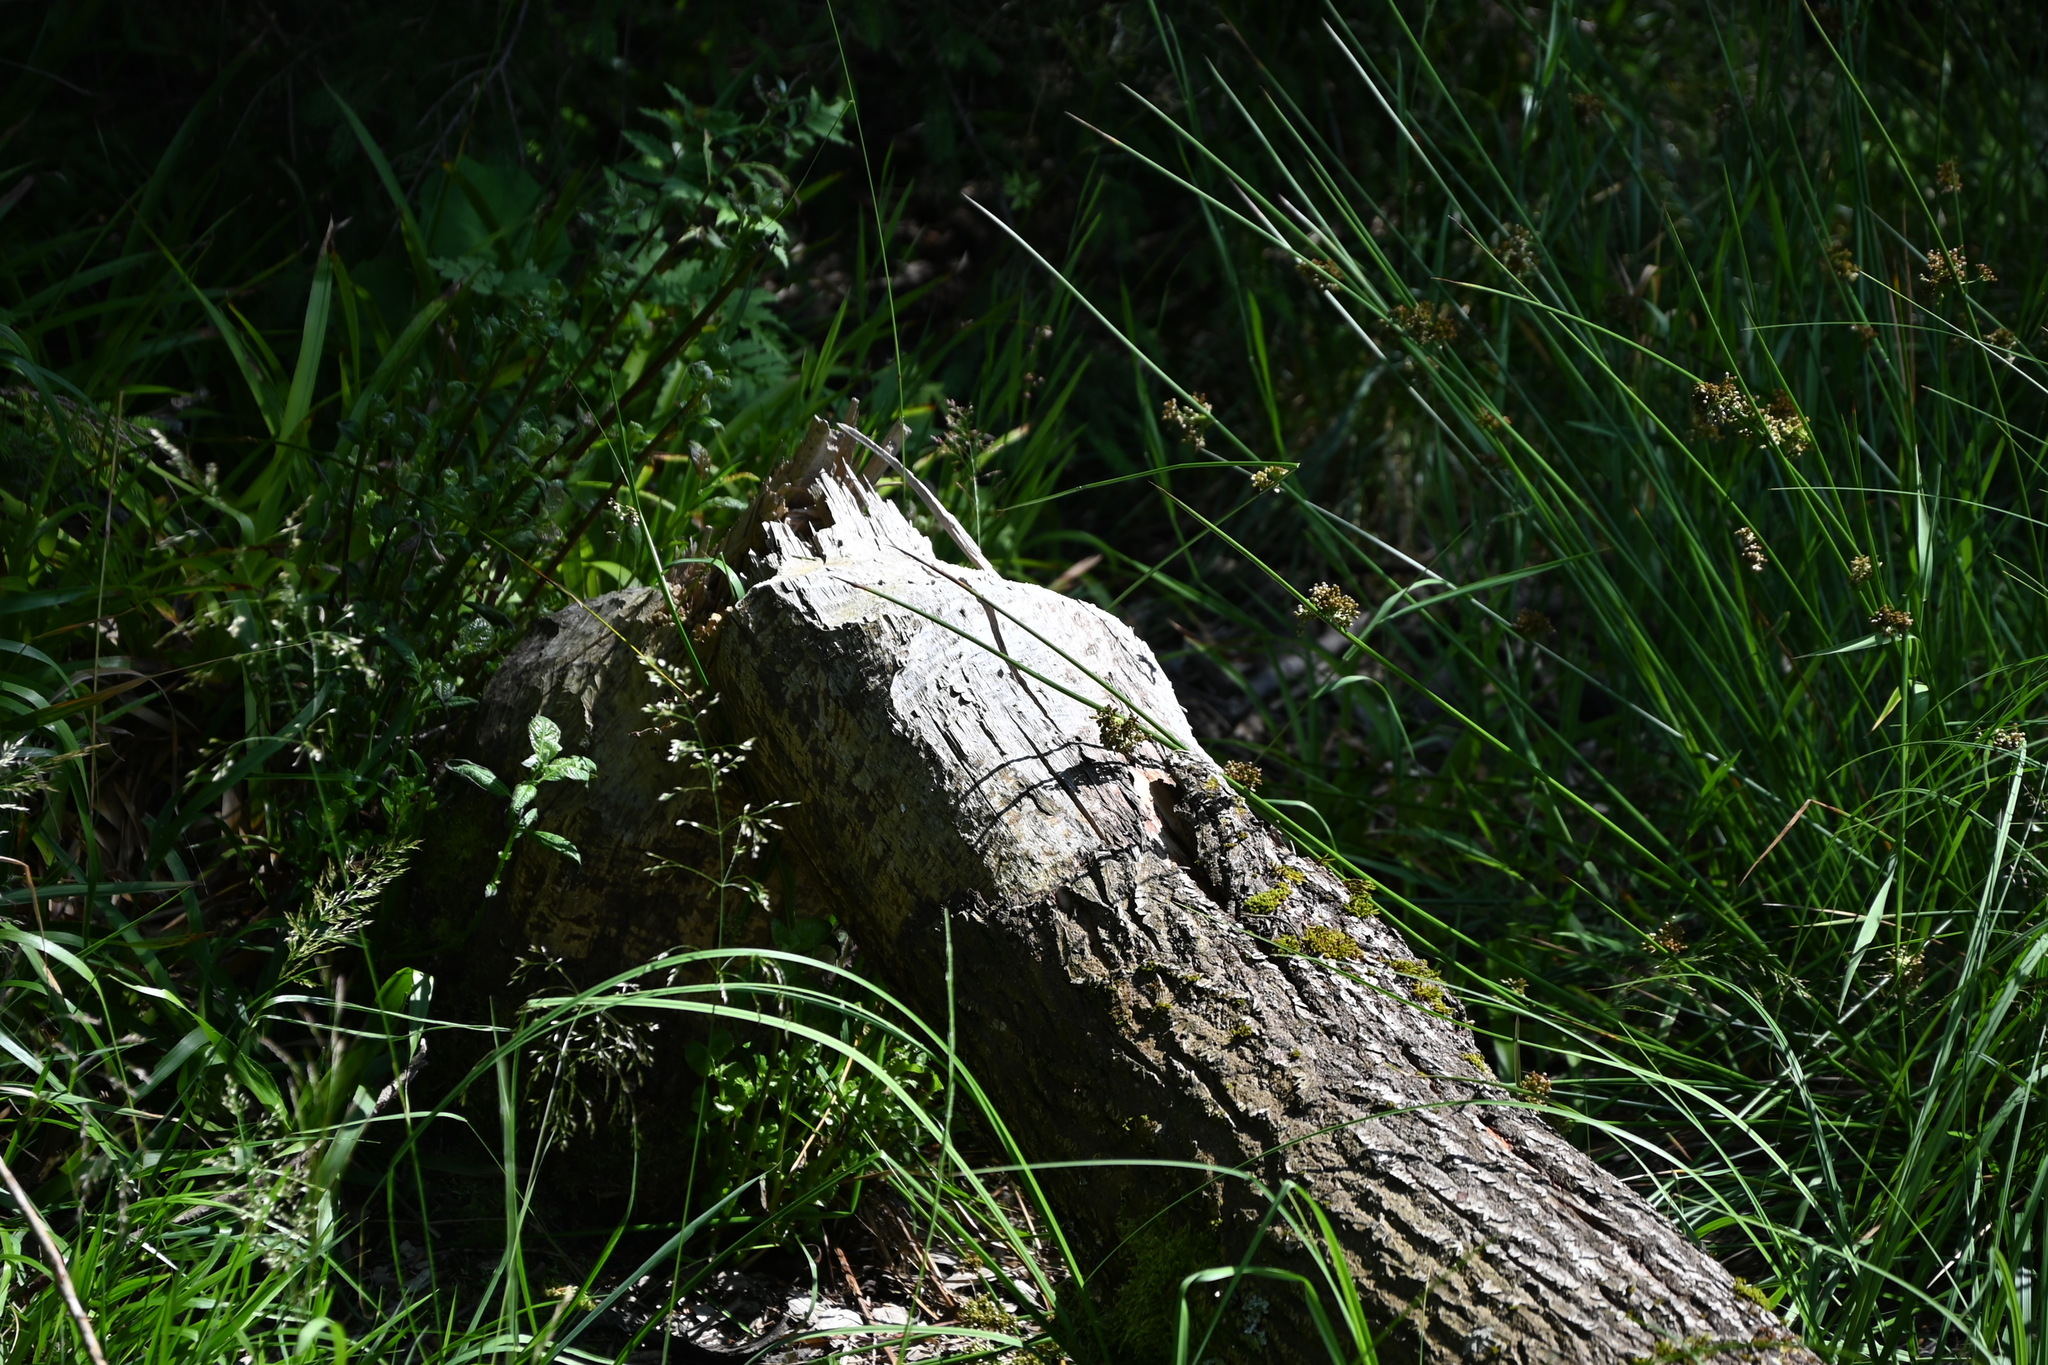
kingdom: Animalia
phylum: Chordata
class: Mammalia
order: Rodentia
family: Castoridae
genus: Castor
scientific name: Castor fiber
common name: Eurasian beaver
